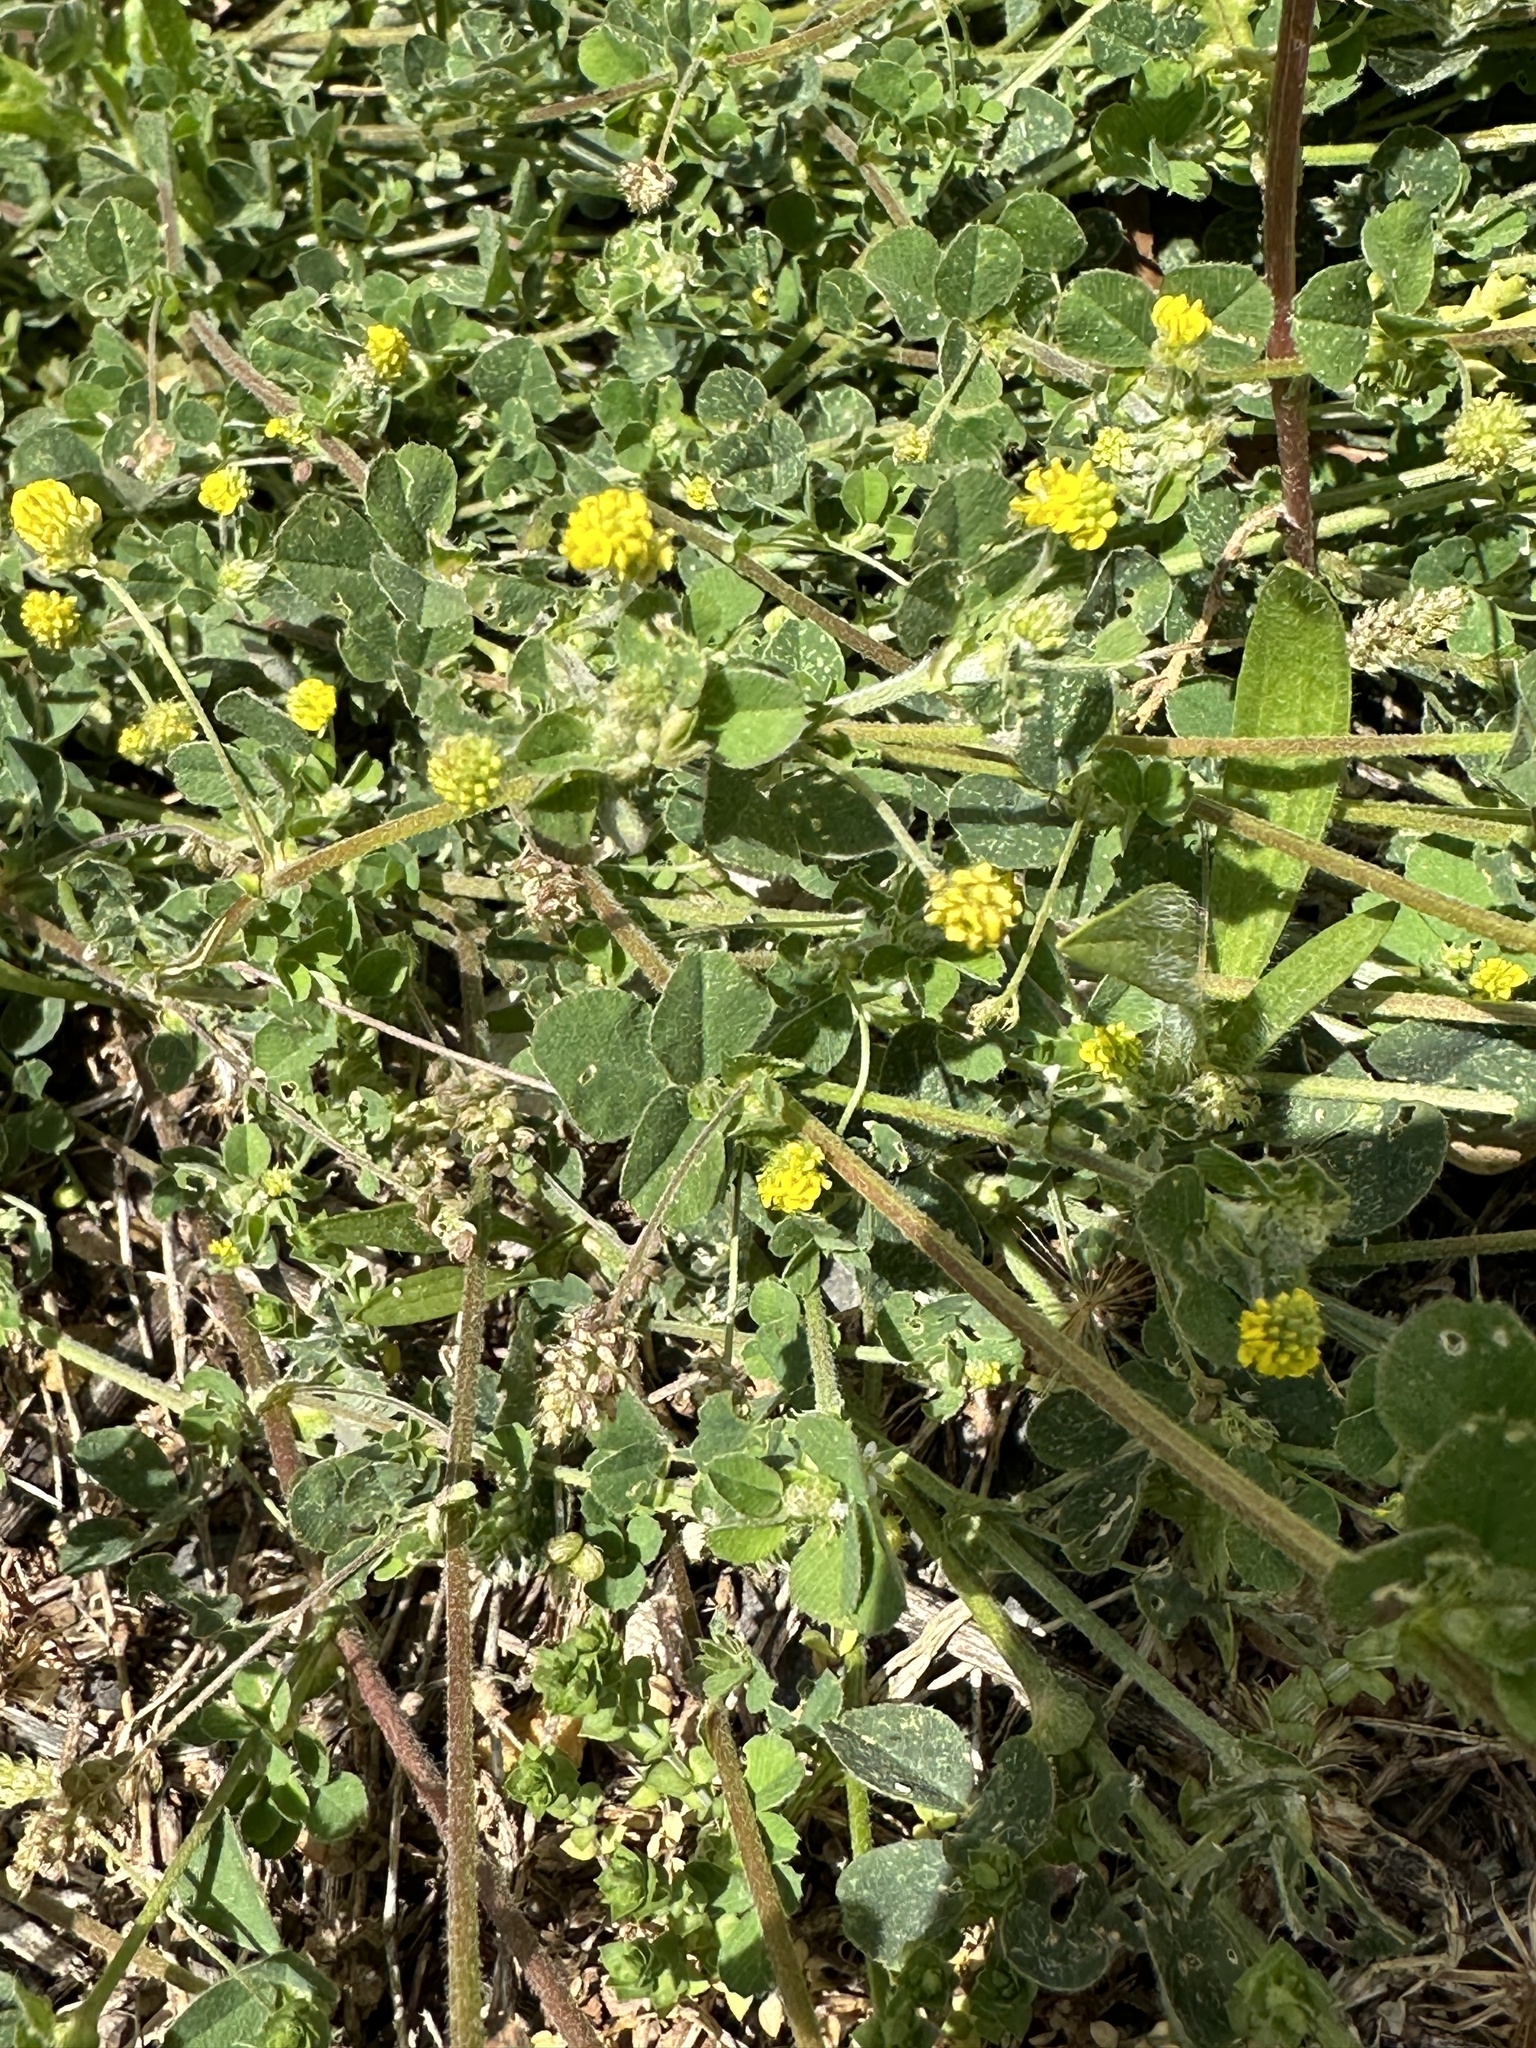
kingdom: Plantae
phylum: Tracheophyta
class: Magnoliopsida
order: Fabales
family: Fabaceae
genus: Medicago
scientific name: Medicago lupulina
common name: Black medick
